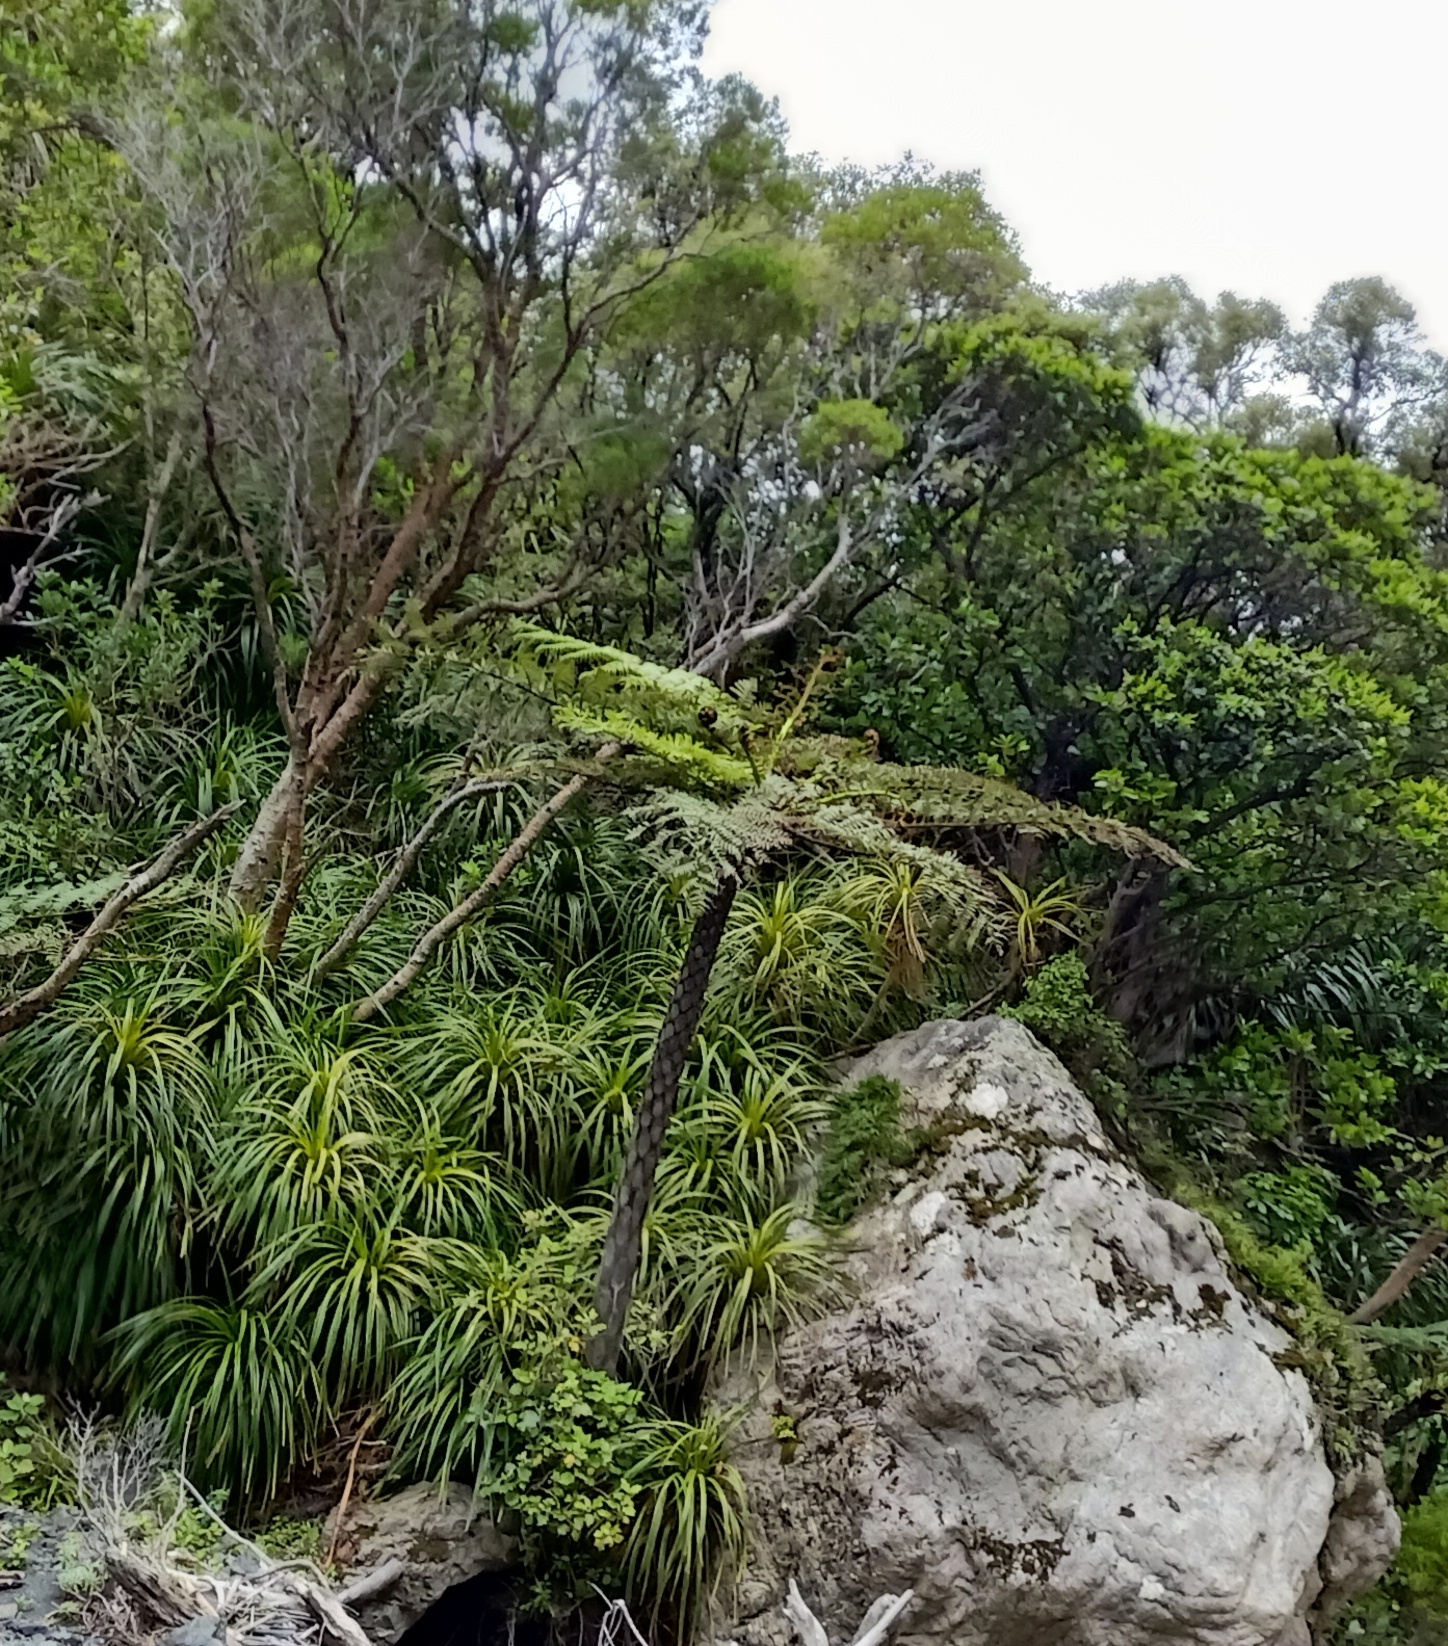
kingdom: Plantae
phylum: Tracheophyta
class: Polypodiopsida
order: Cyatheales
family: Cyatheaceae
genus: Sphaeropteris
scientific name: Sphaeropteris medullaris
